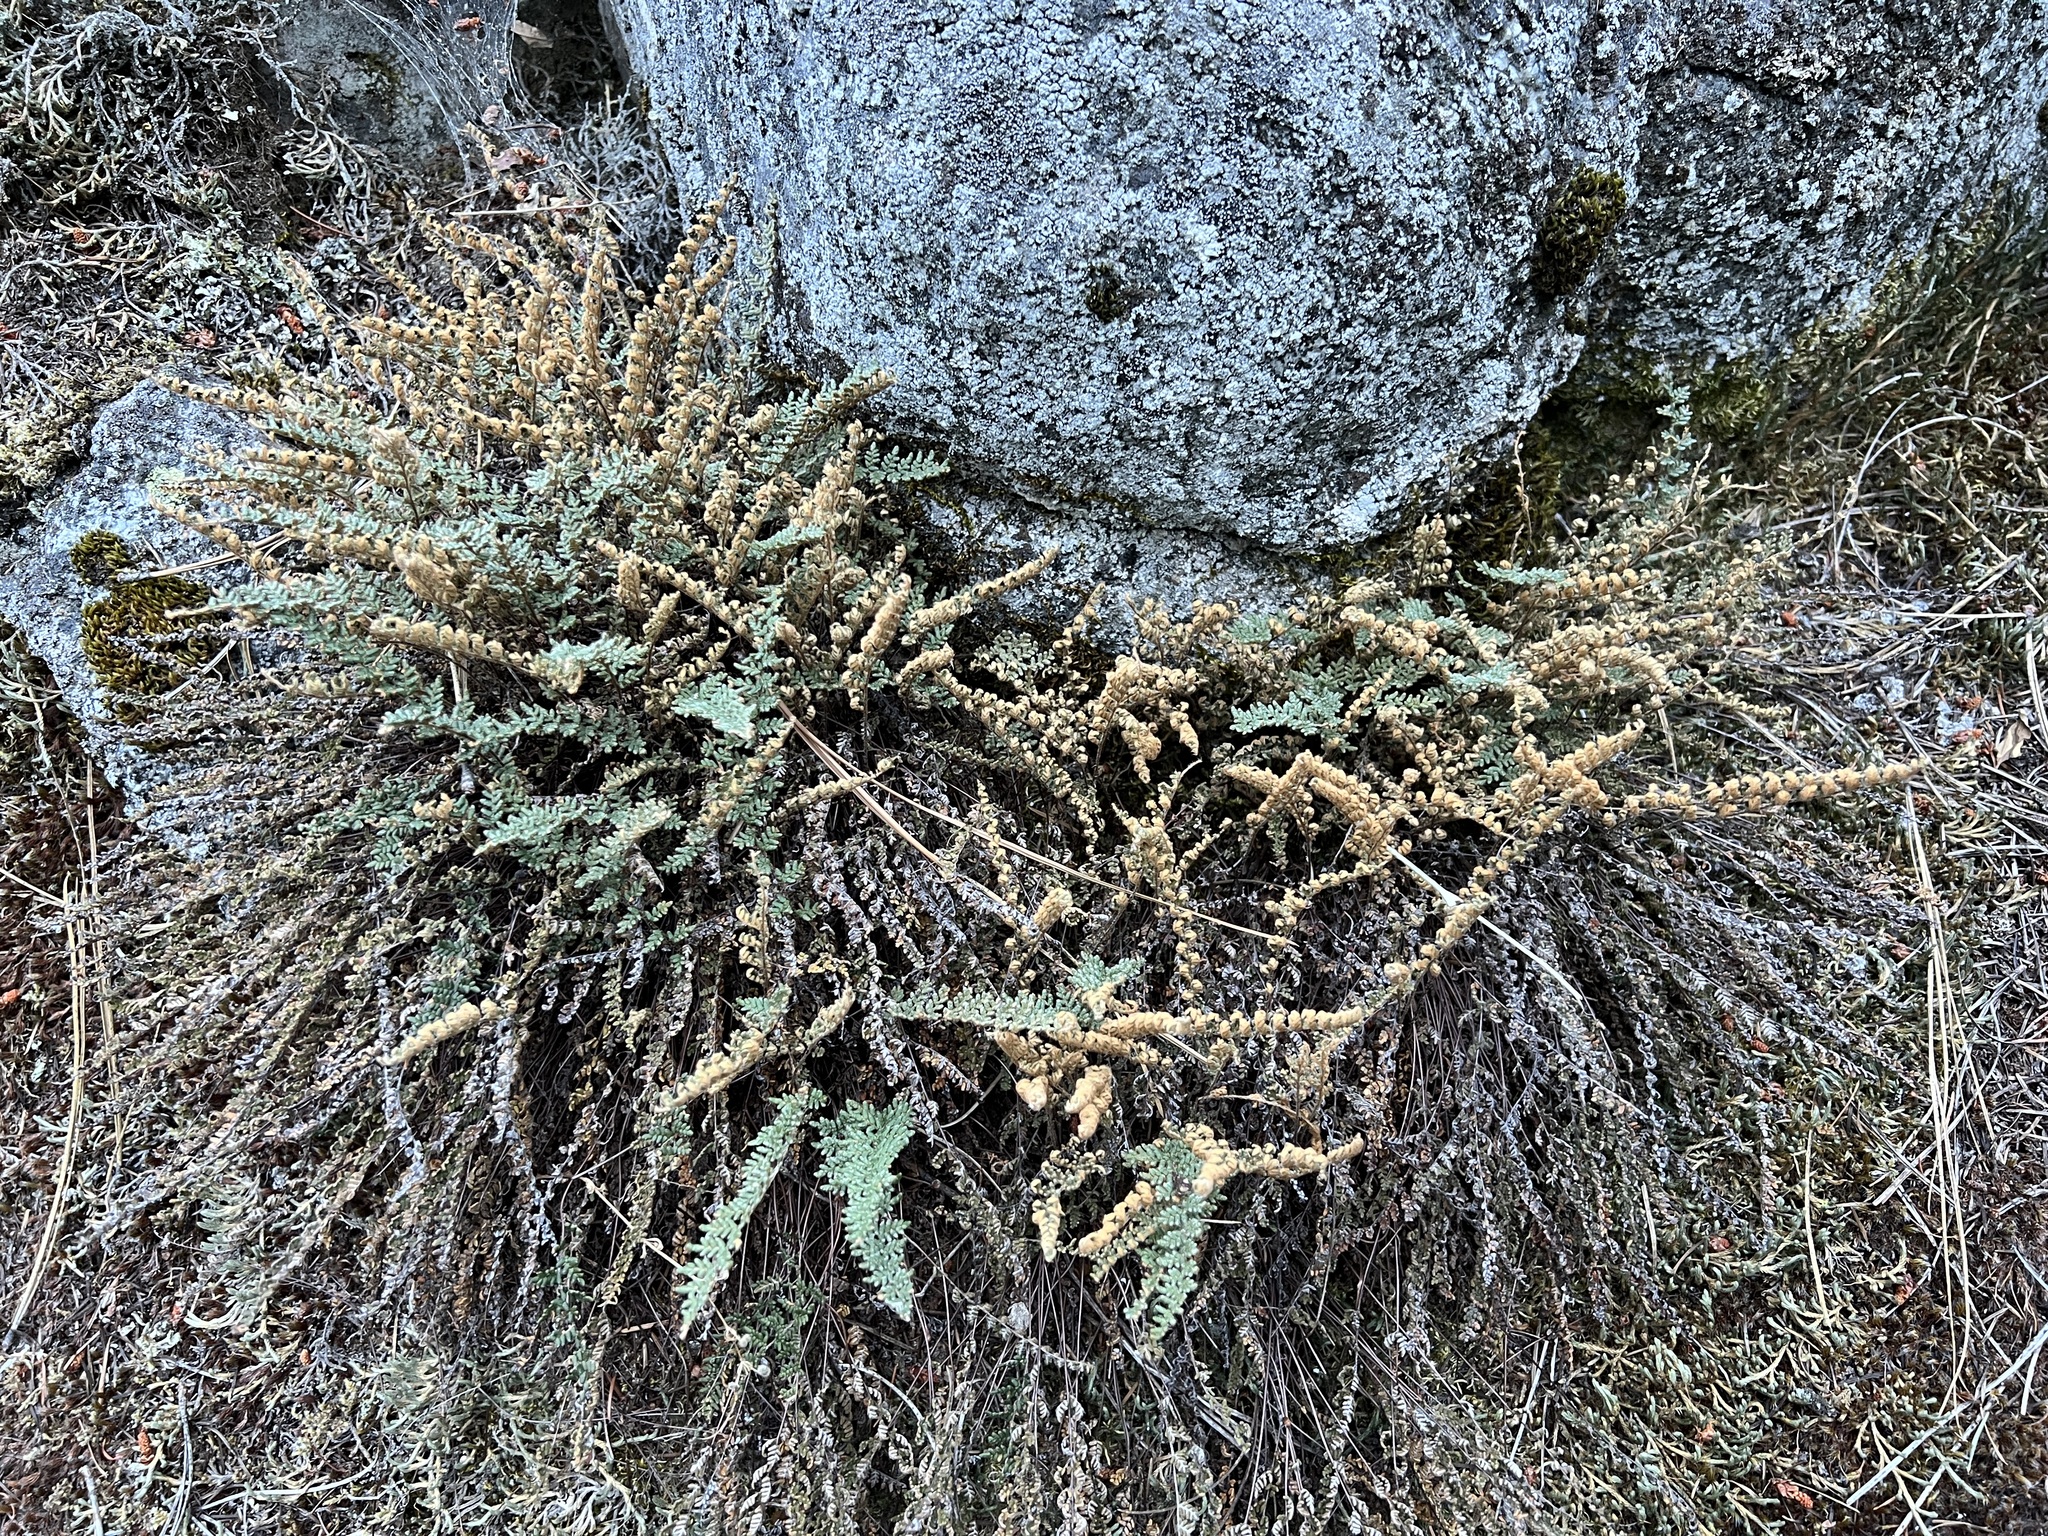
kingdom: Plantae
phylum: Tracheophyta
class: Polypodiopsida
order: Polypodiales
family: Pteridaceae
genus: Myriopteris
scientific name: Myriopteris gracillima
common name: Lace fern
